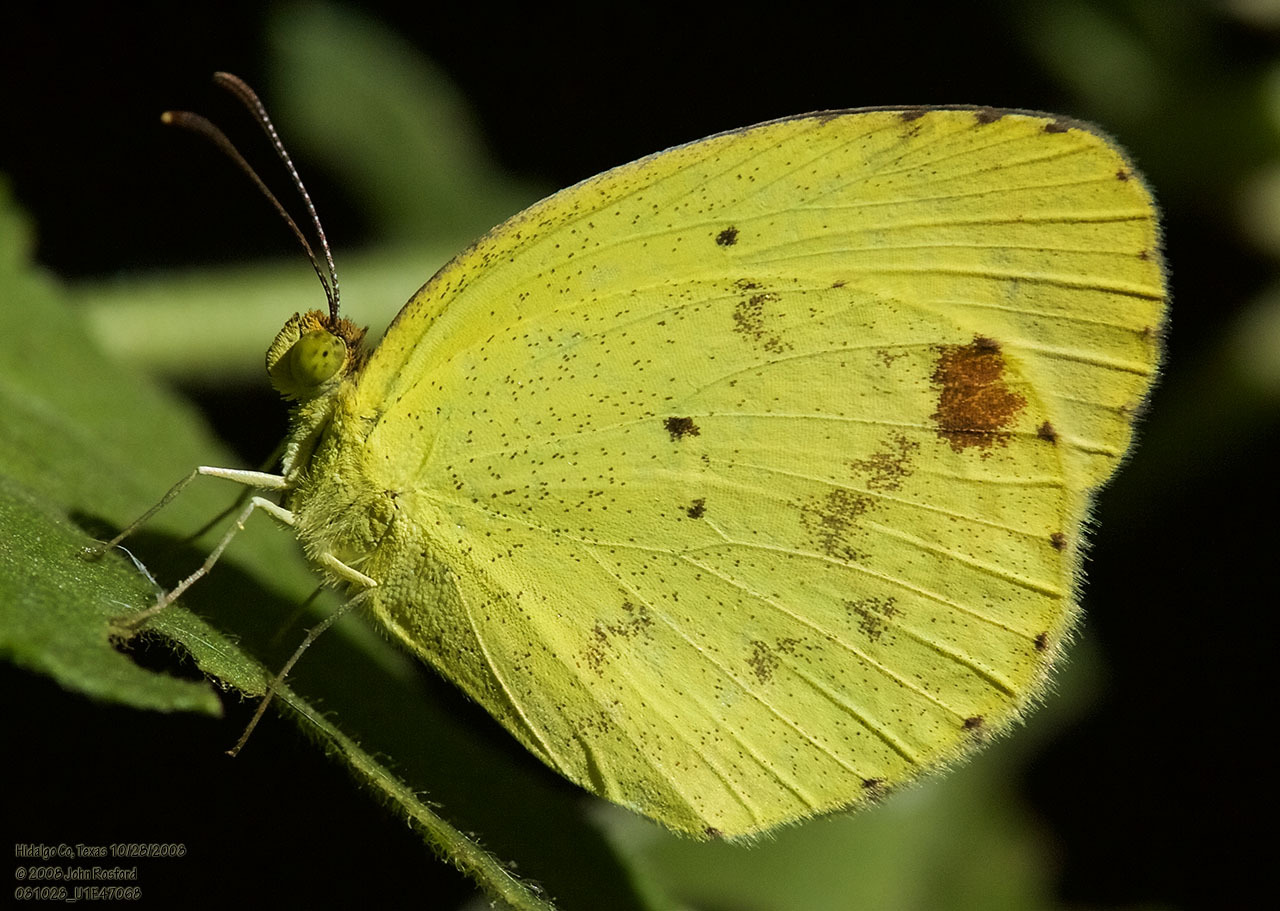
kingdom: Animalia
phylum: Arthropoda
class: Insecta
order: Lepidoptera
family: Pieridae
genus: Pyrisitia
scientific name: Pyrisitia nise
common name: Mimosa yellow
